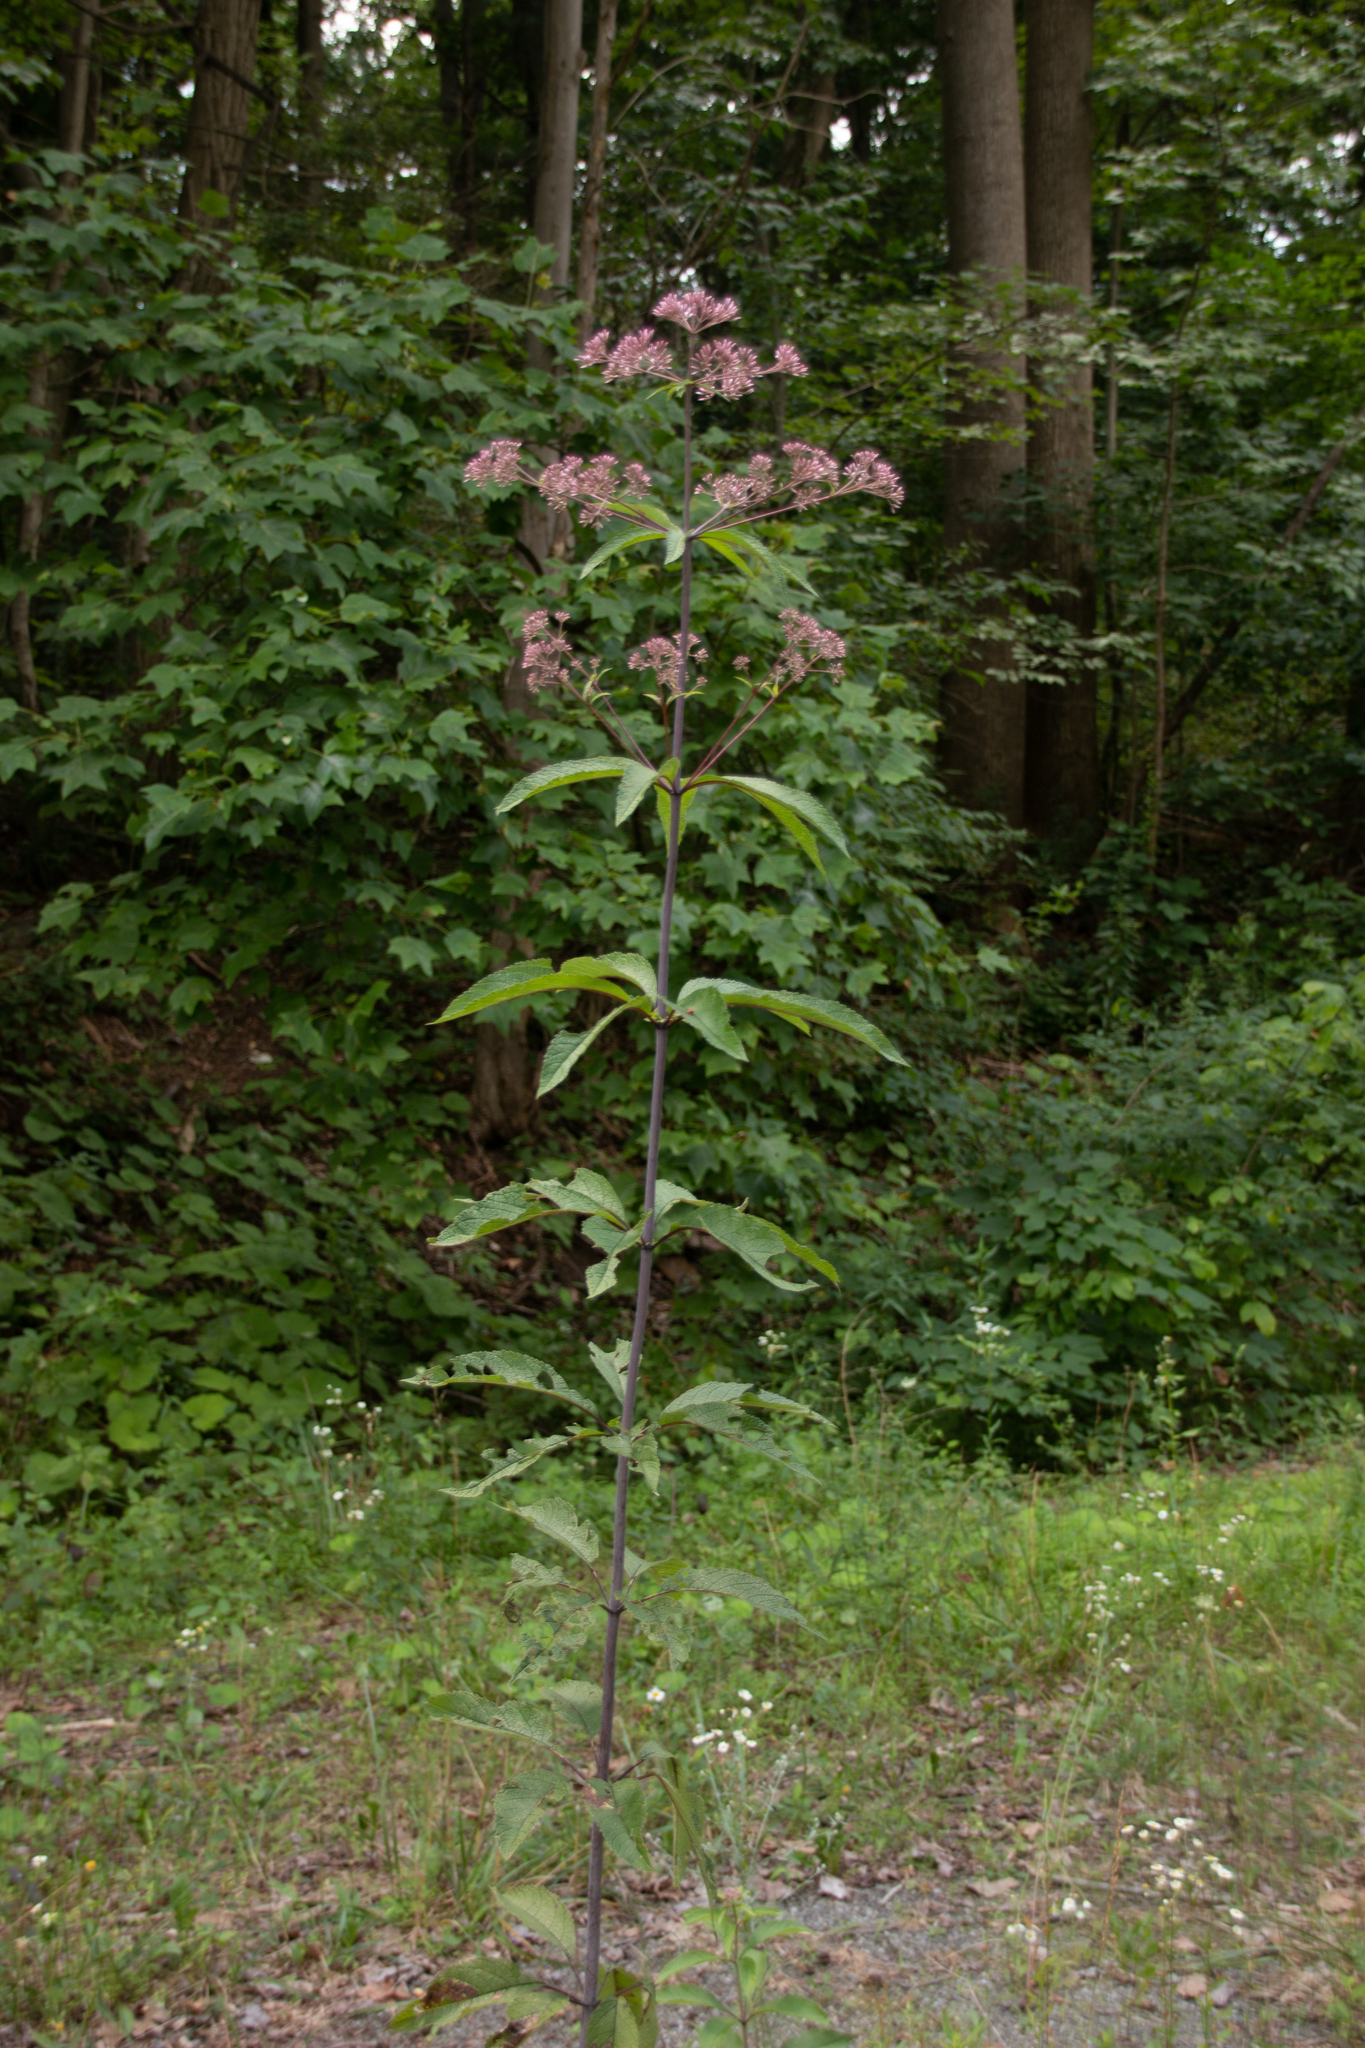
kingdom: Plantae
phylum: Tracheophyta
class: Magnoliopsida
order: Asterales
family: Asteraceae
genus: Eutrochium
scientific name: Eutrochium fistulosum
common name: Trumpetweed
